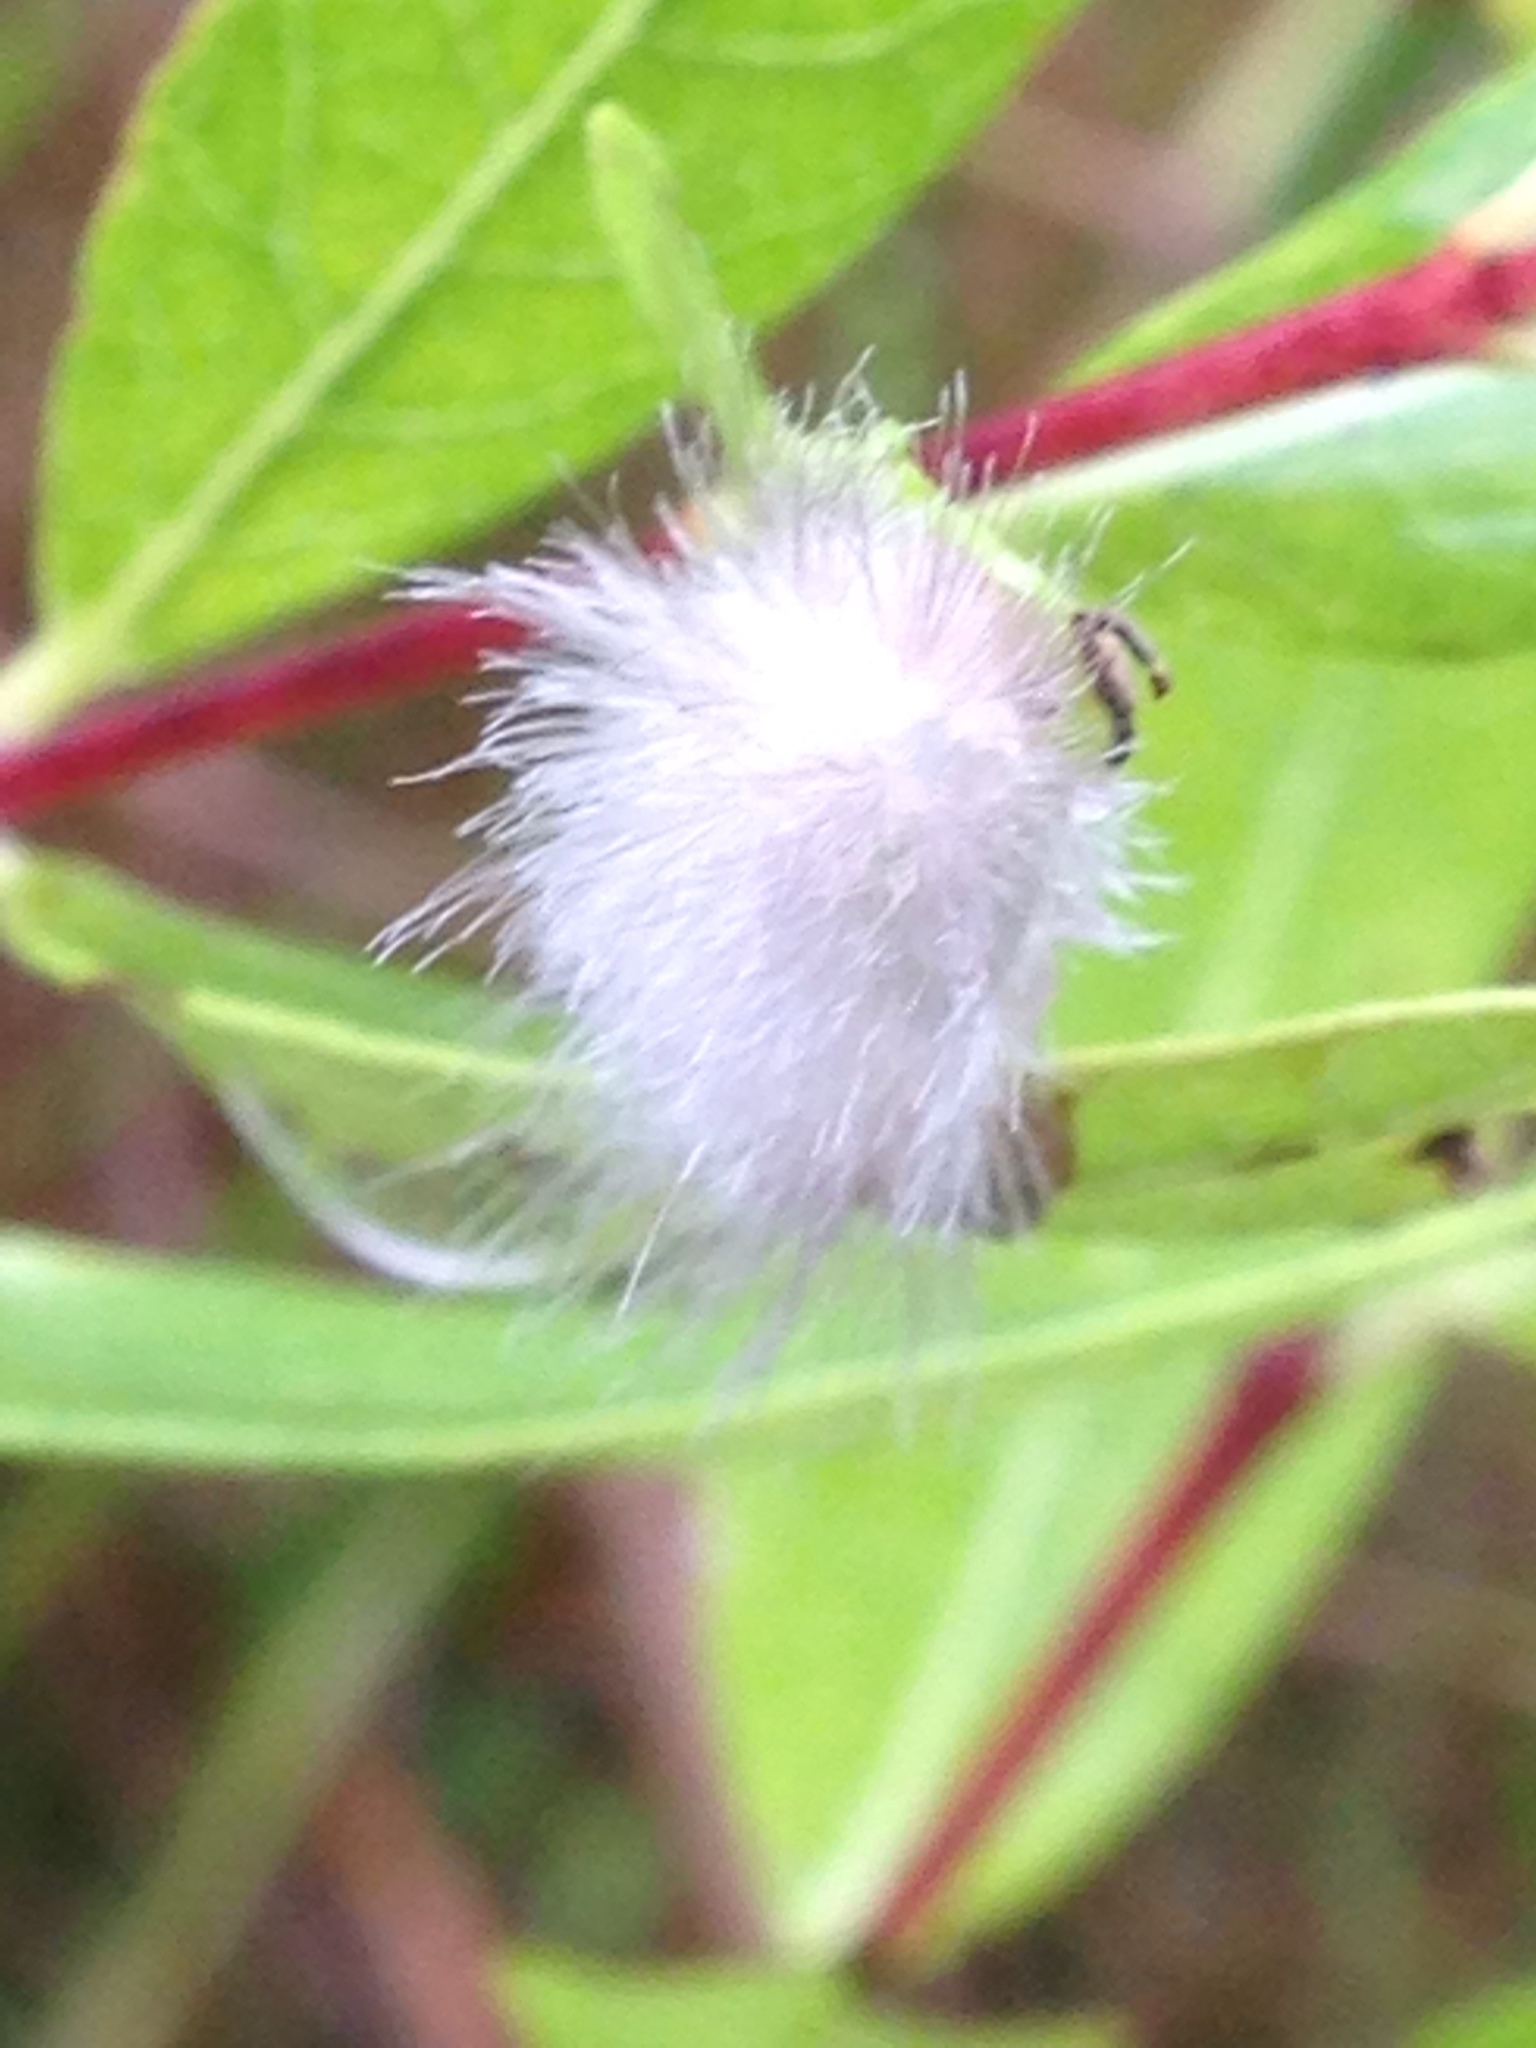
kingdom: Animalia
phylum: Arthropoda
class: Insecta
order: Lepidoptera
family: Erebidae
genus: Cycnia
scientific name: Cycnia tenera
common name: Delicate cycnia moth
